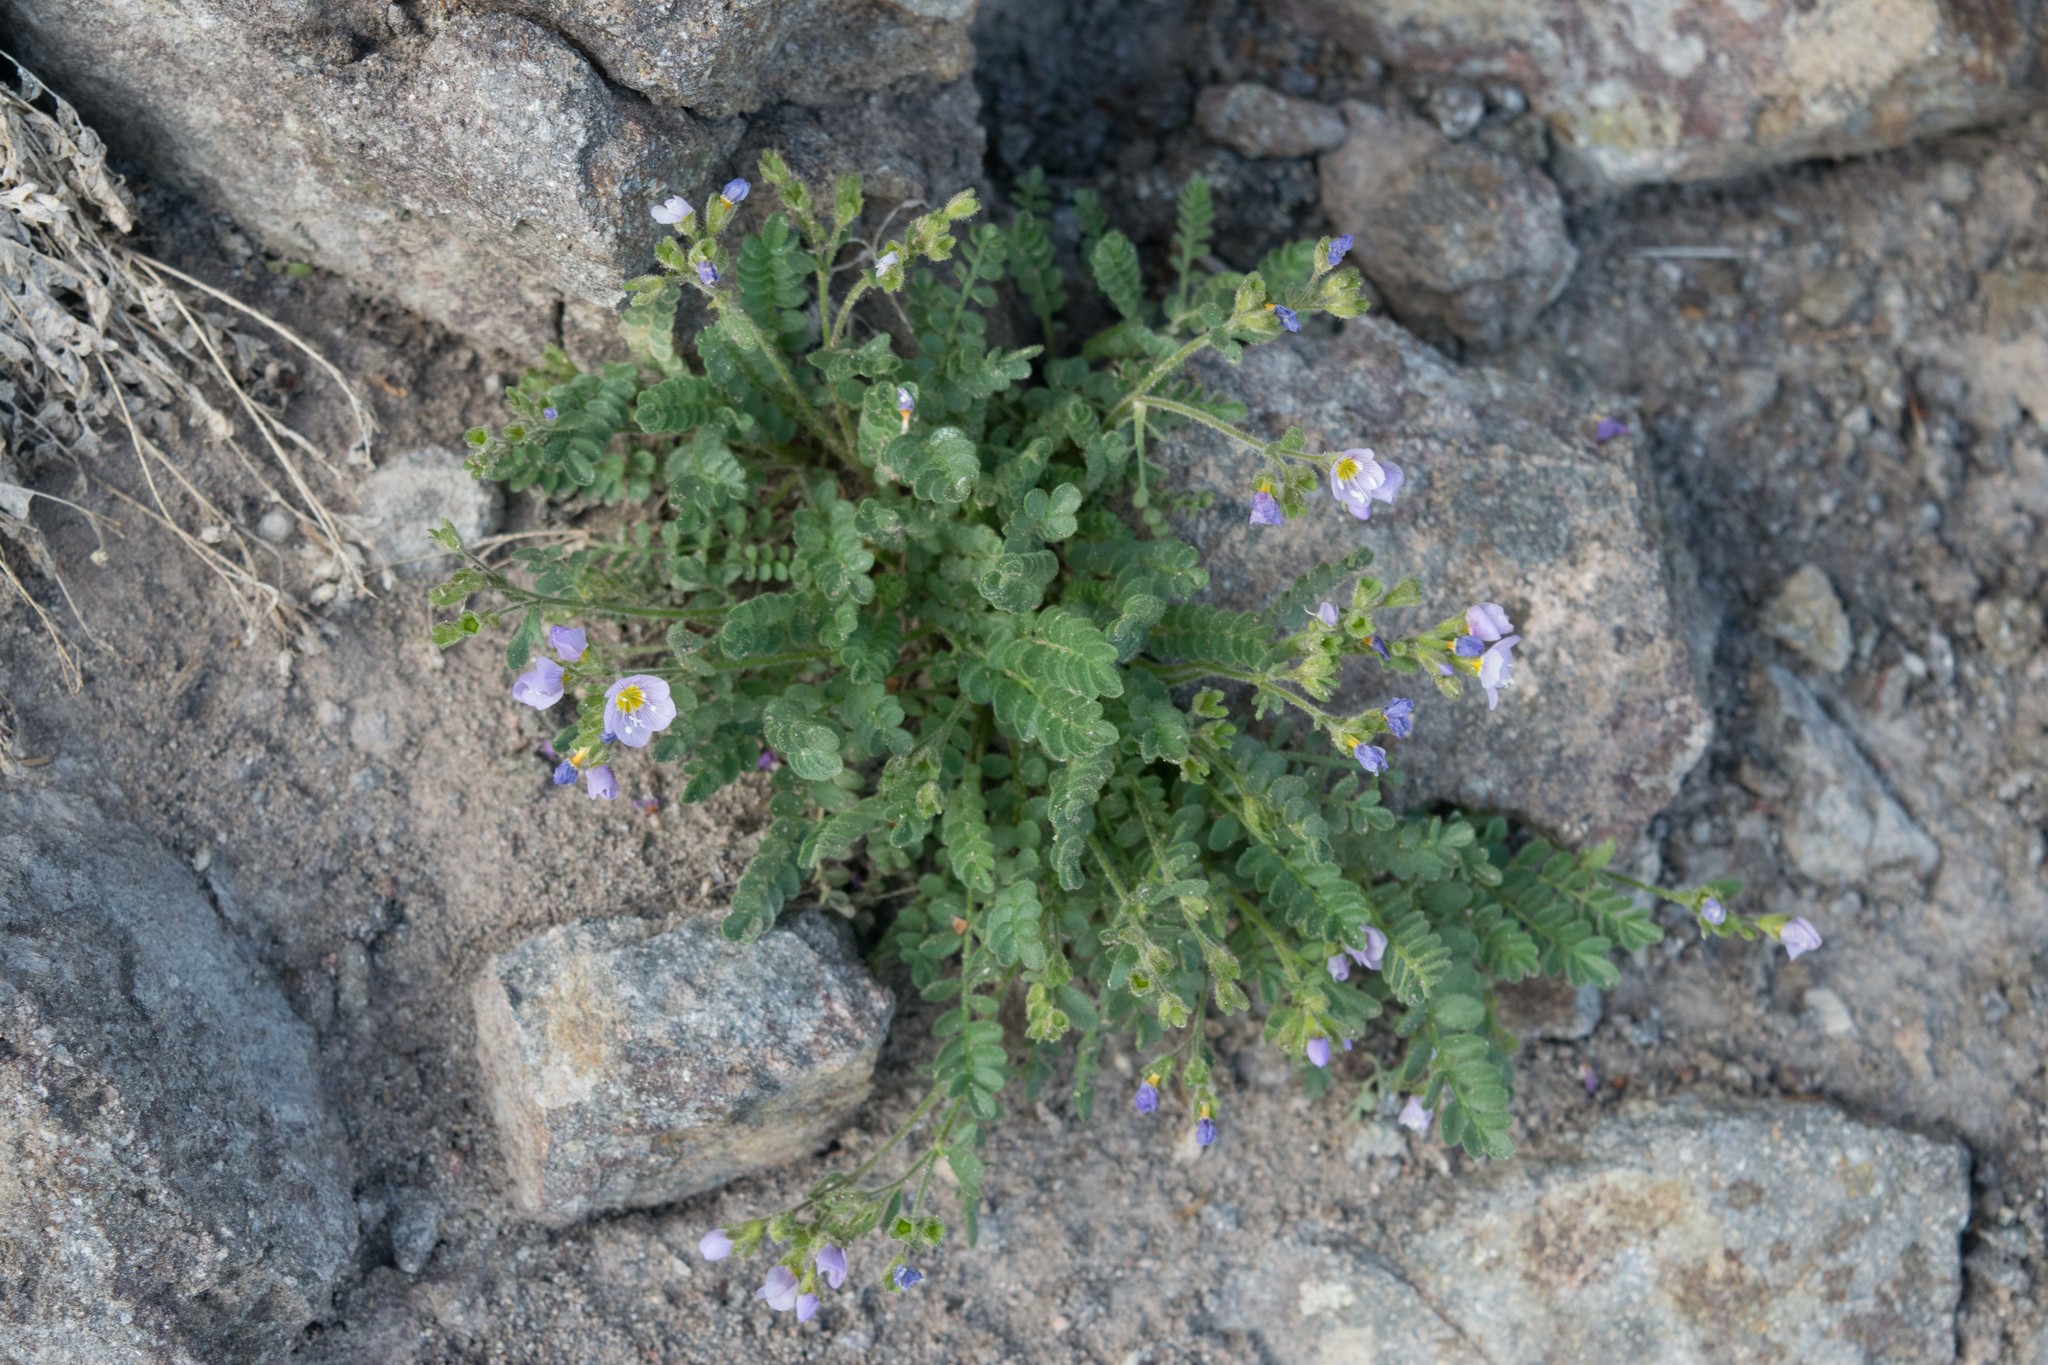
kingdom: Plantae
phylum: Tracheophyta
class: Magnoliopsida
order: Ericales
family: Polemoniaceae
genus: Polemonium
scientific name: Polemonium pulcherrimum
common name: Short jacob's-ladder
